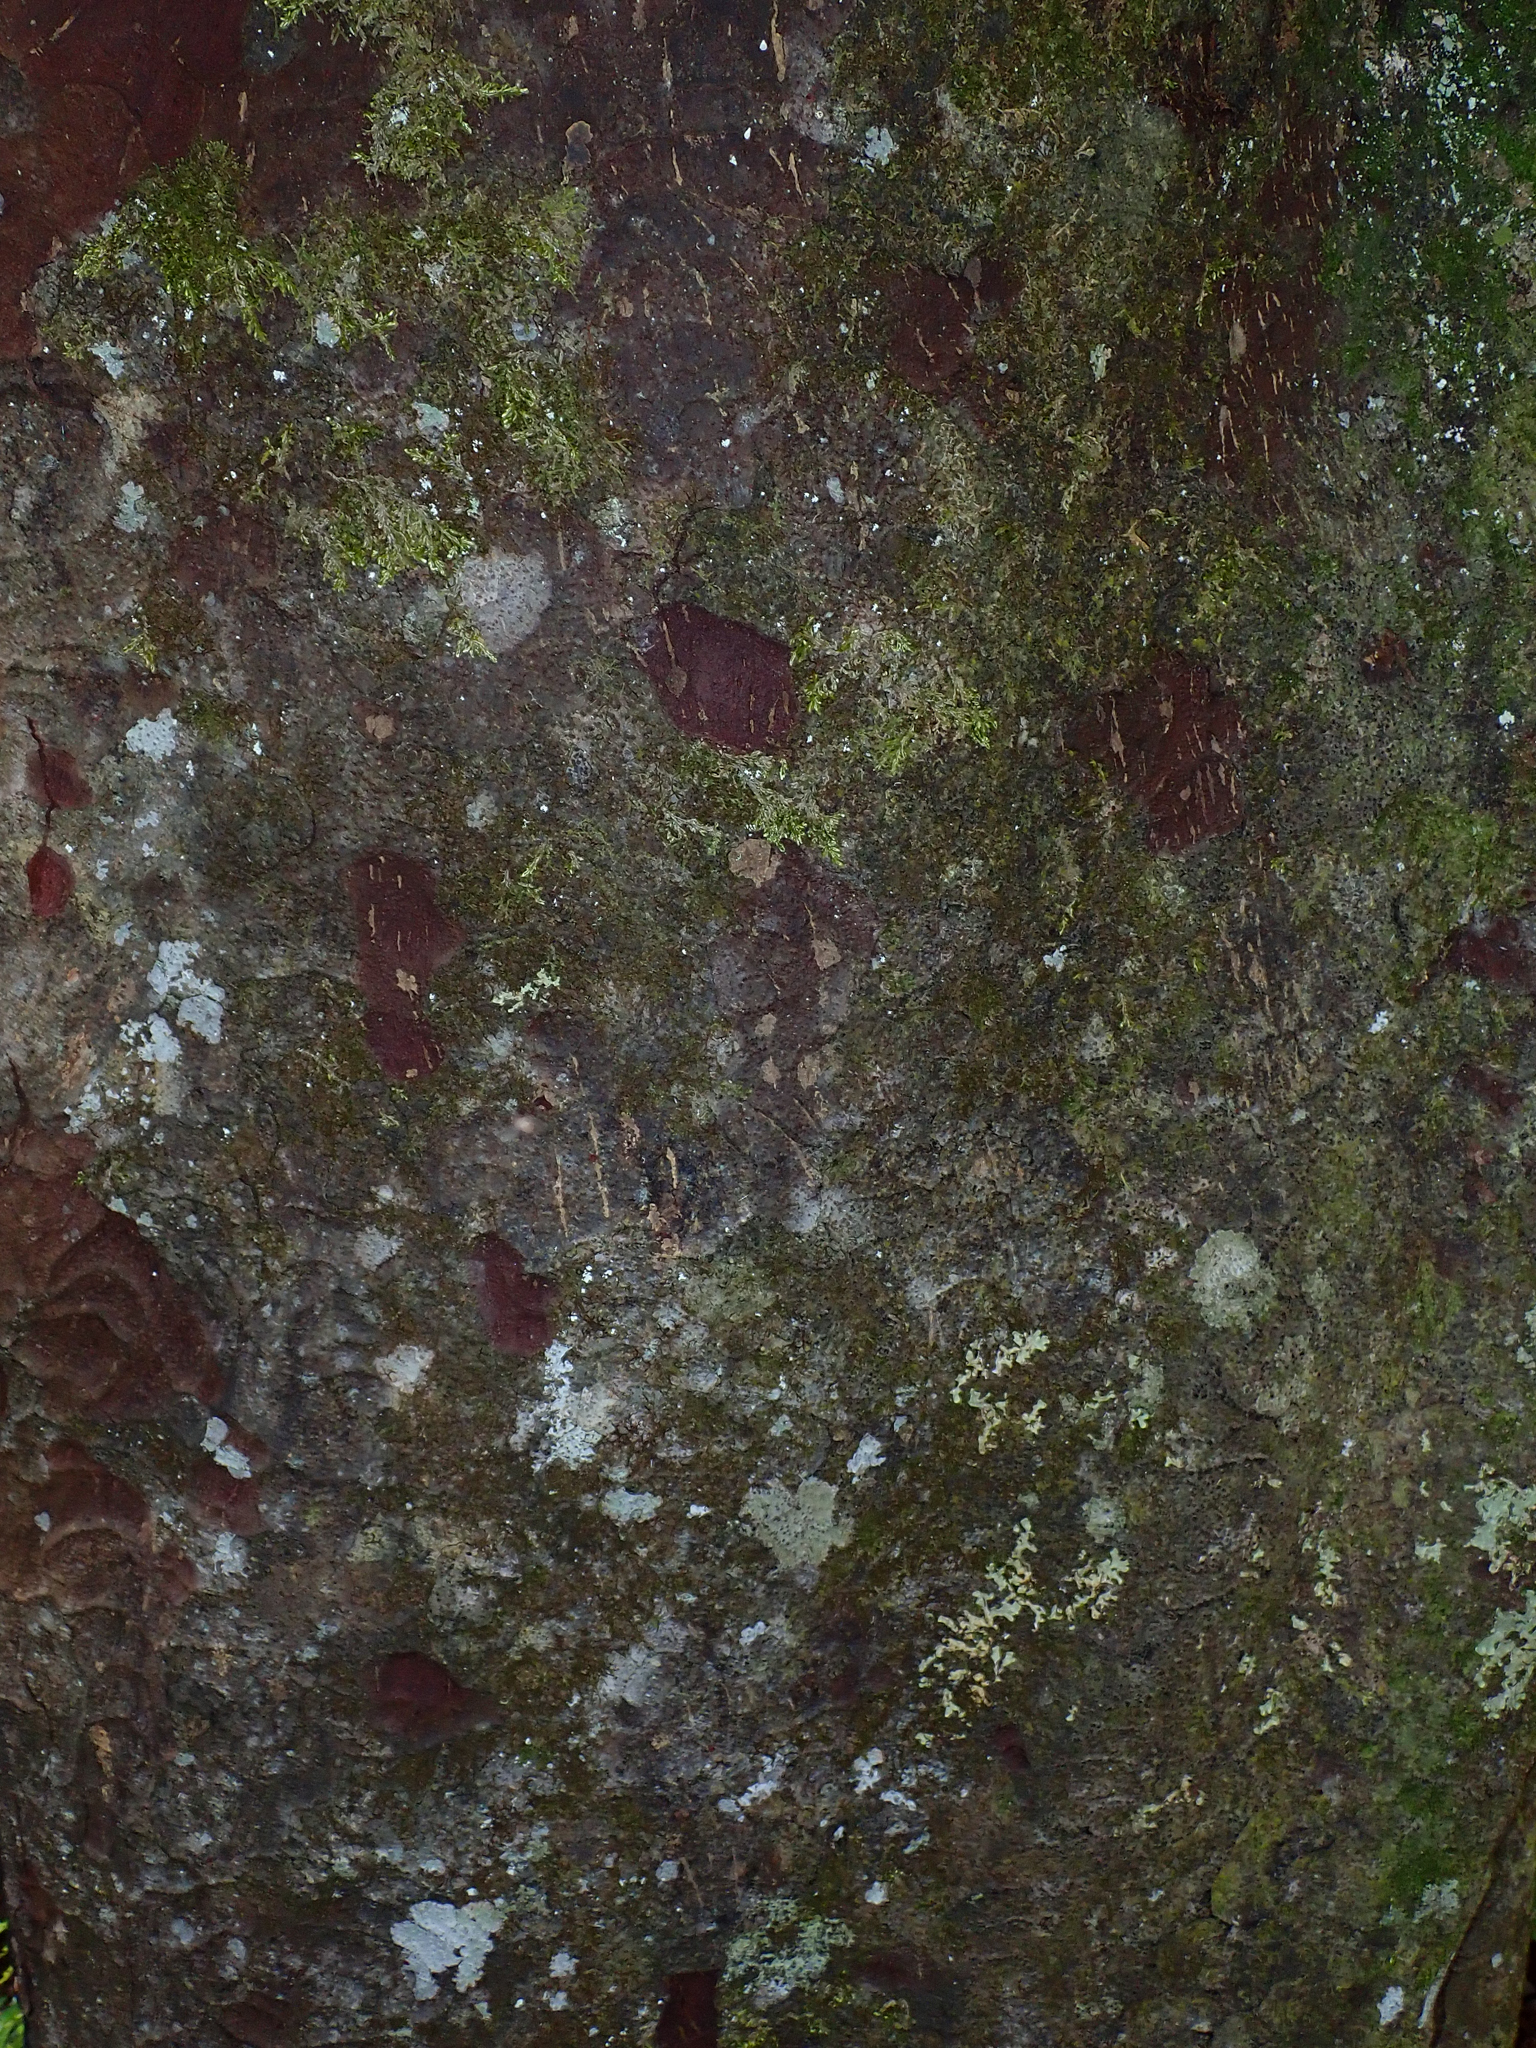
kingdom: Plantae
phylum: Tracheophyta
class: Pinopsida
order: Pinales
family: Podocarpaceae
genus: Prumnopitys
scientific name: Prumnopitys ferruginea
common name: Brown pine
